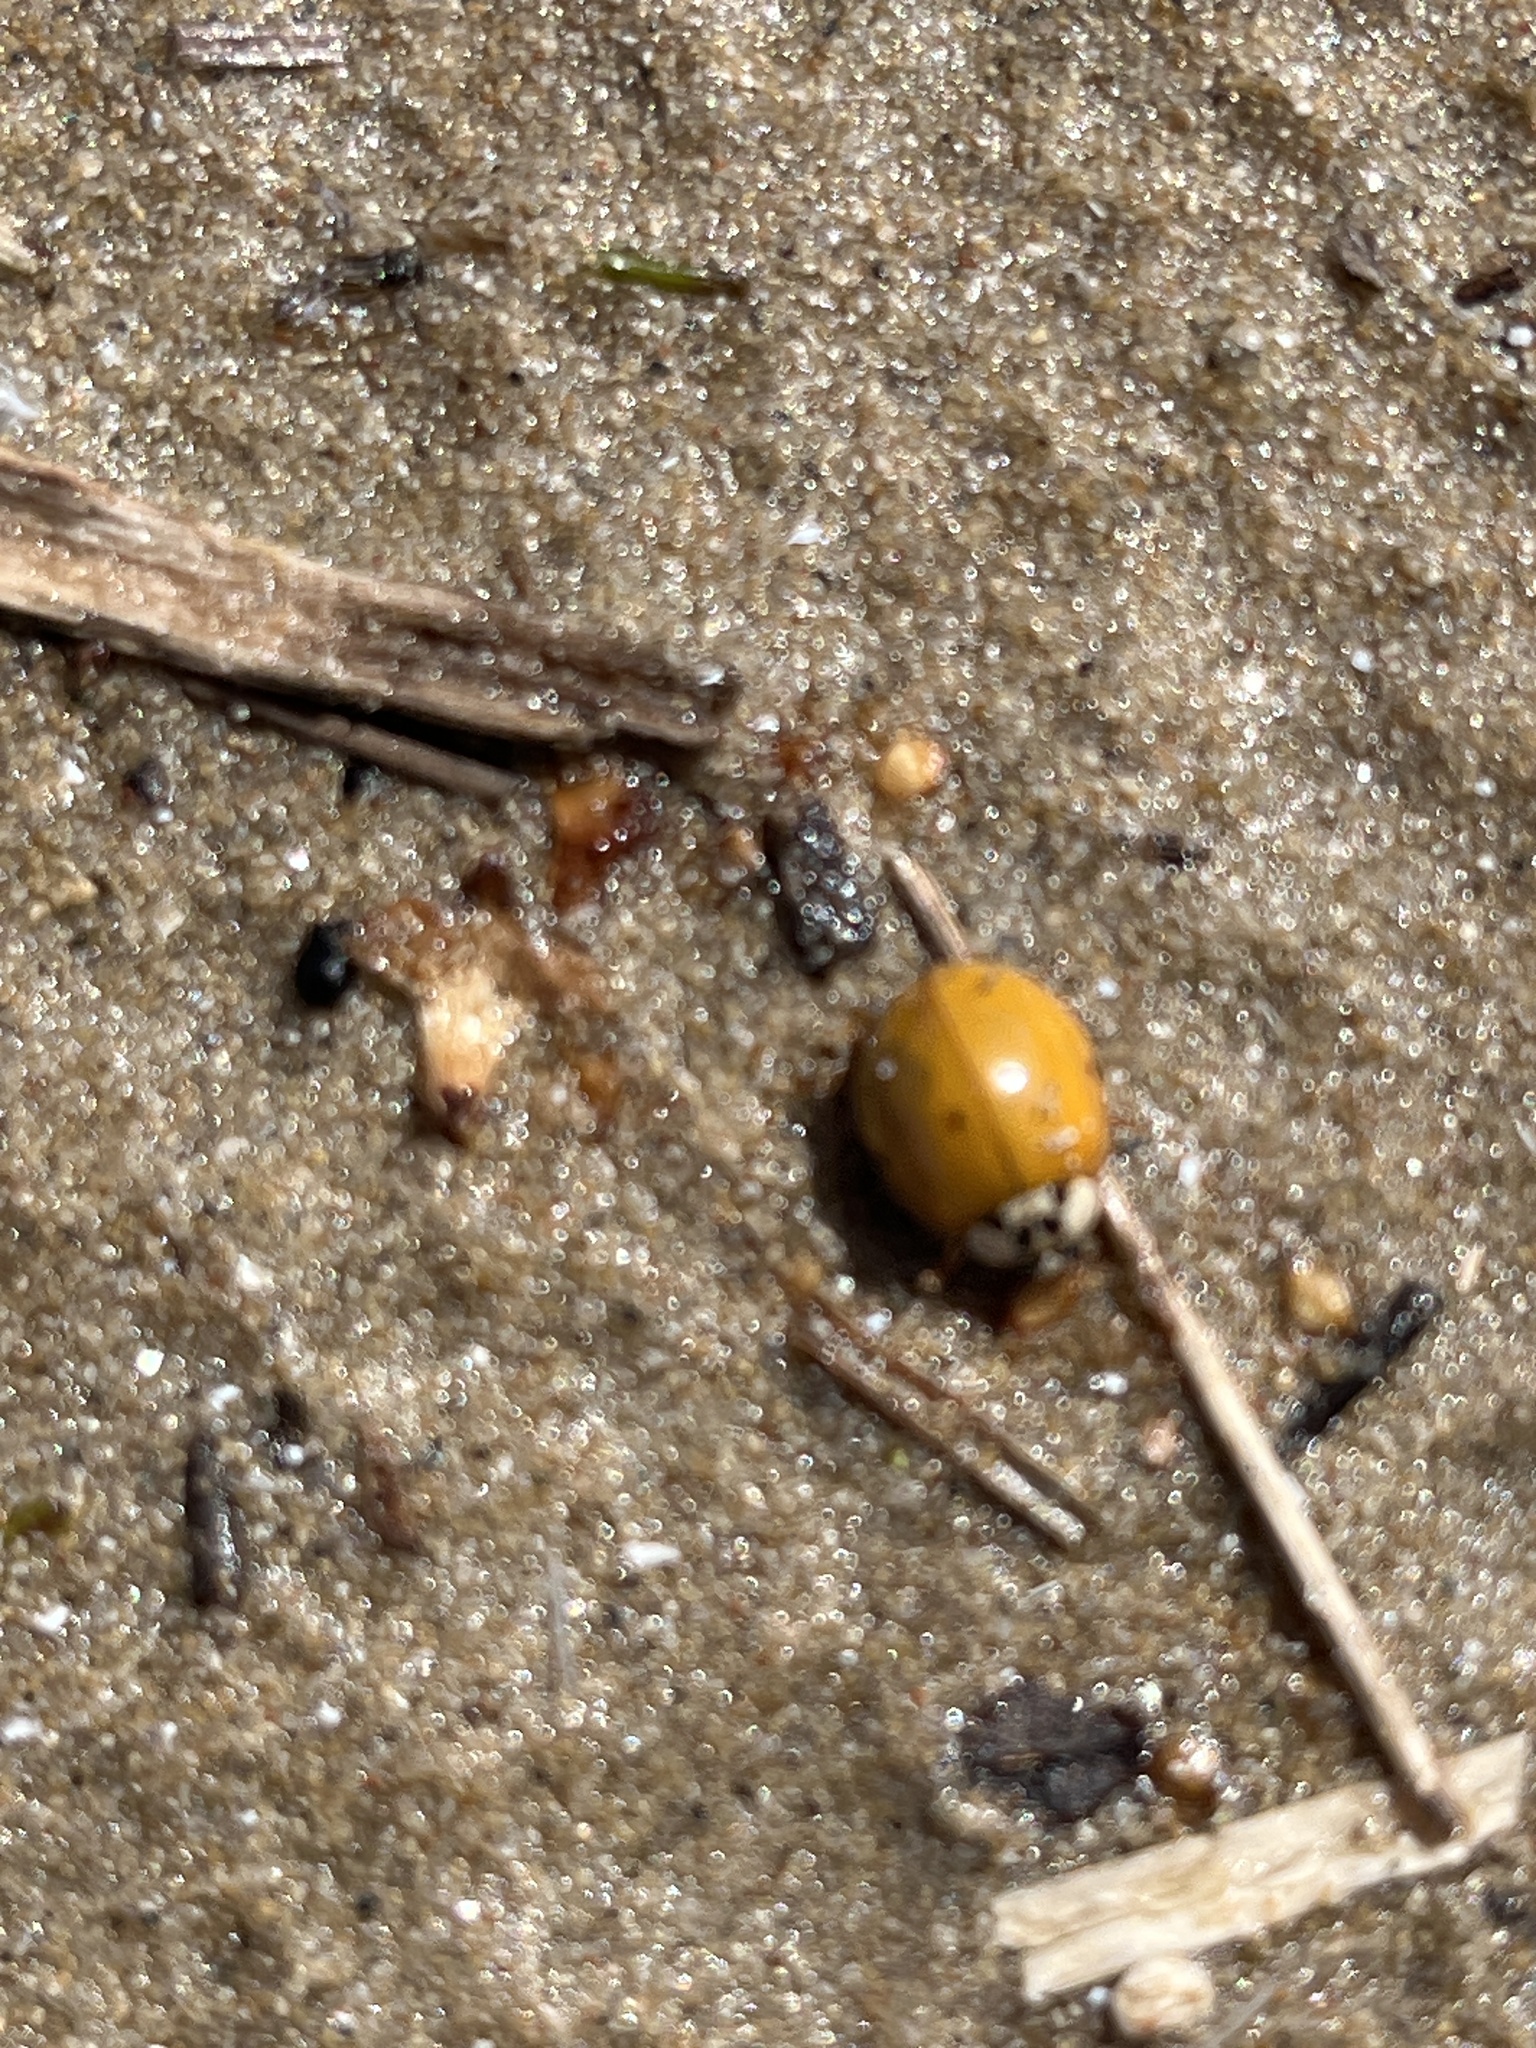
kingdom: Animalia
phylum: Arthropoda
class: Insecta
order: Coleoptera
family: Coccinellidae
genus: Harmonia
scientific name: Harmonia axyridis
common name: Harlequin ladybird
